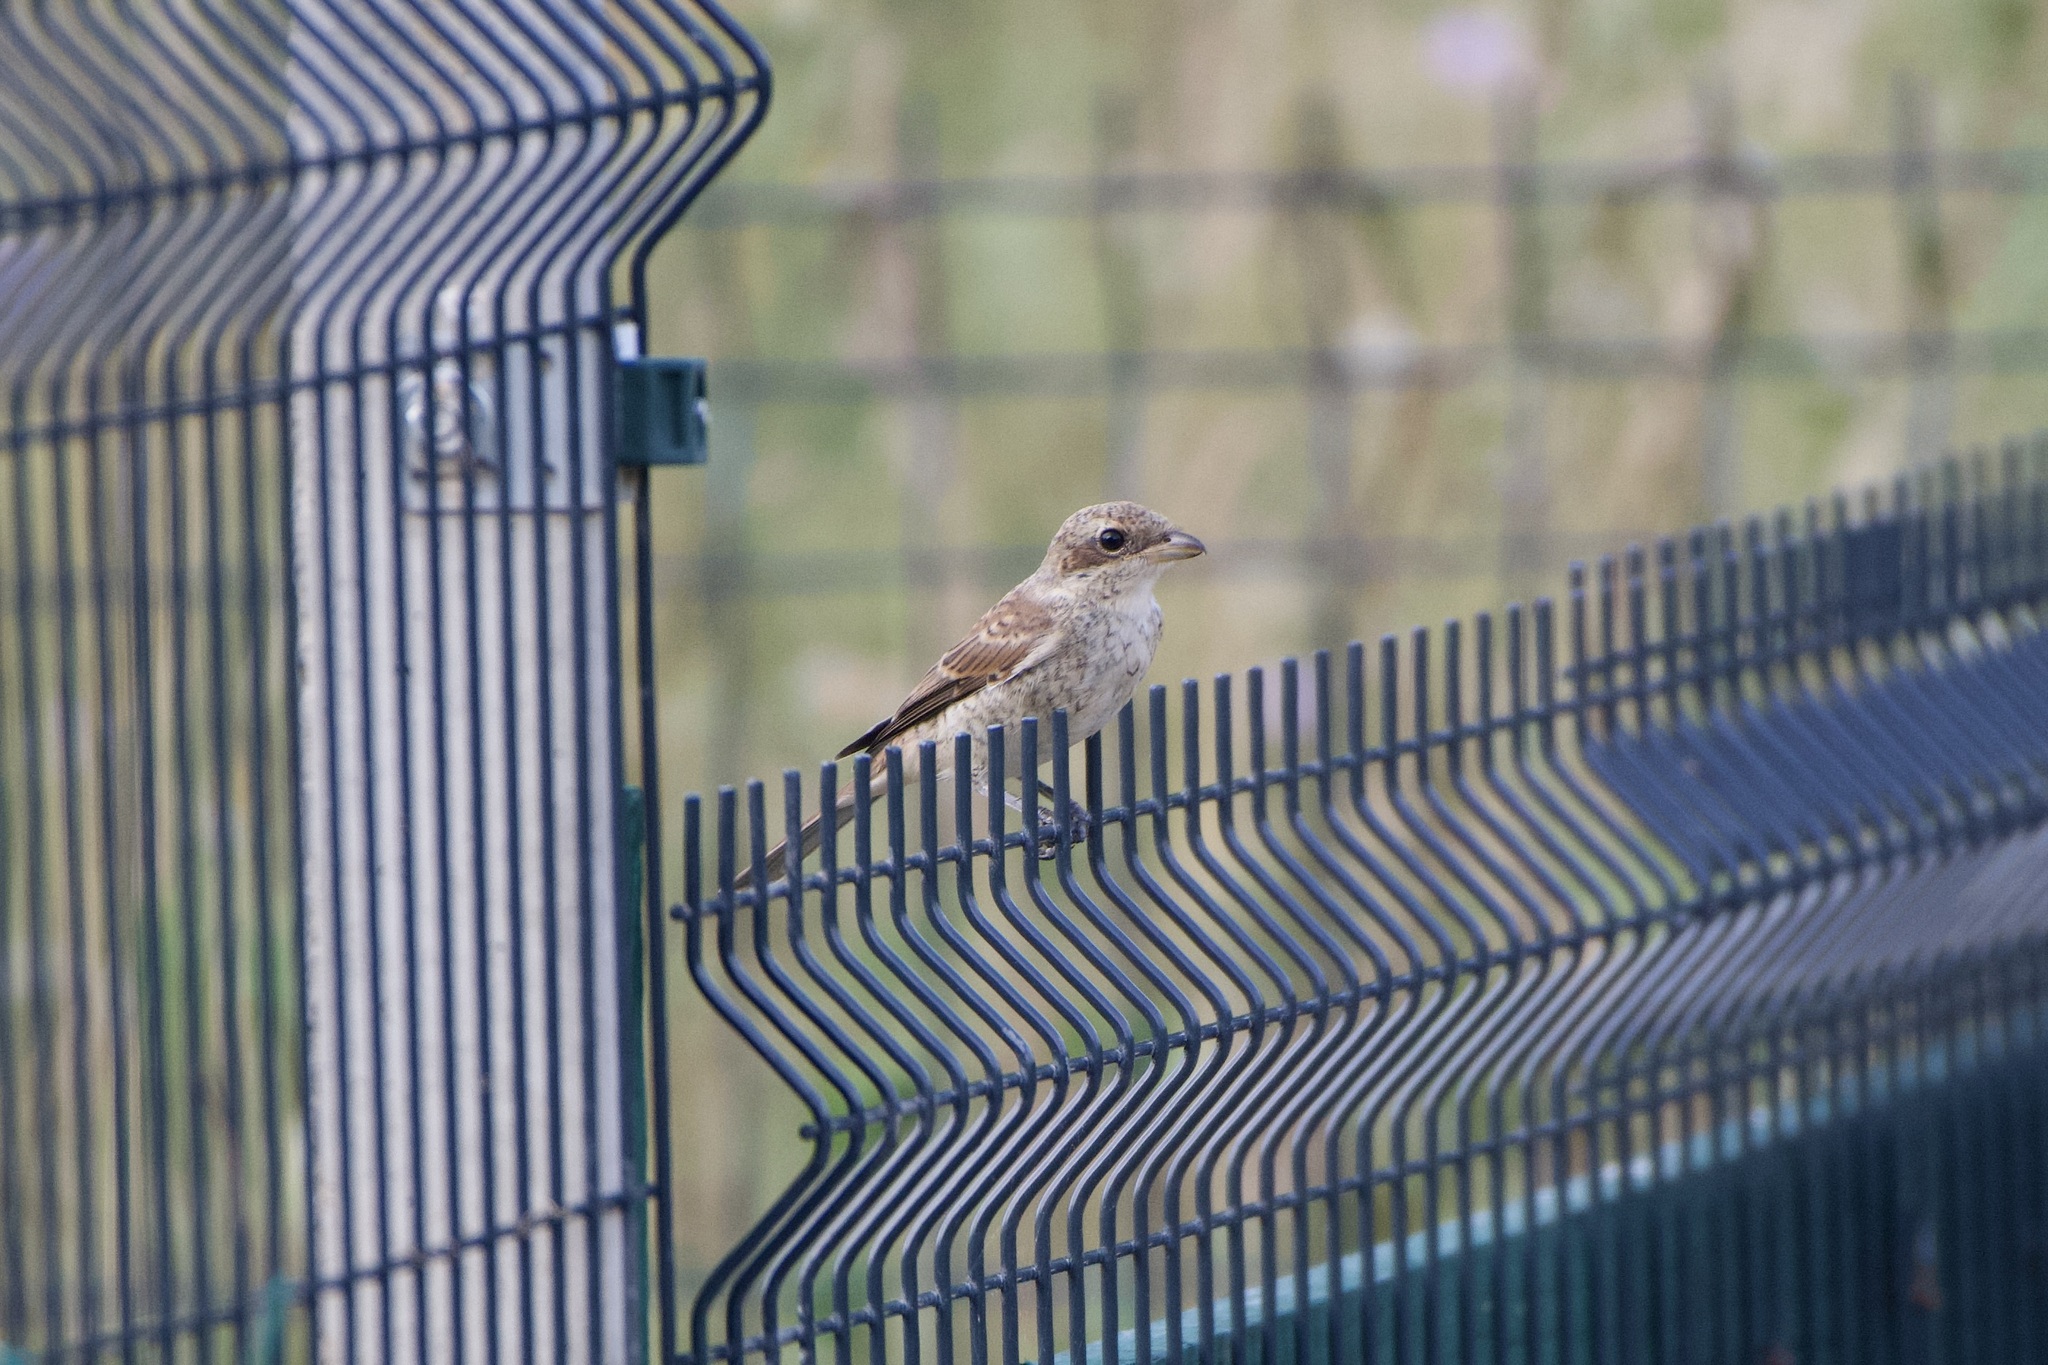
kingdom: Animalia
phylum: Chordata
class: Aves
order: Passeriformes
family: Laniidae
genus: Lanius
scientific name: Lanius collurio
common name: Red-backed shrike
